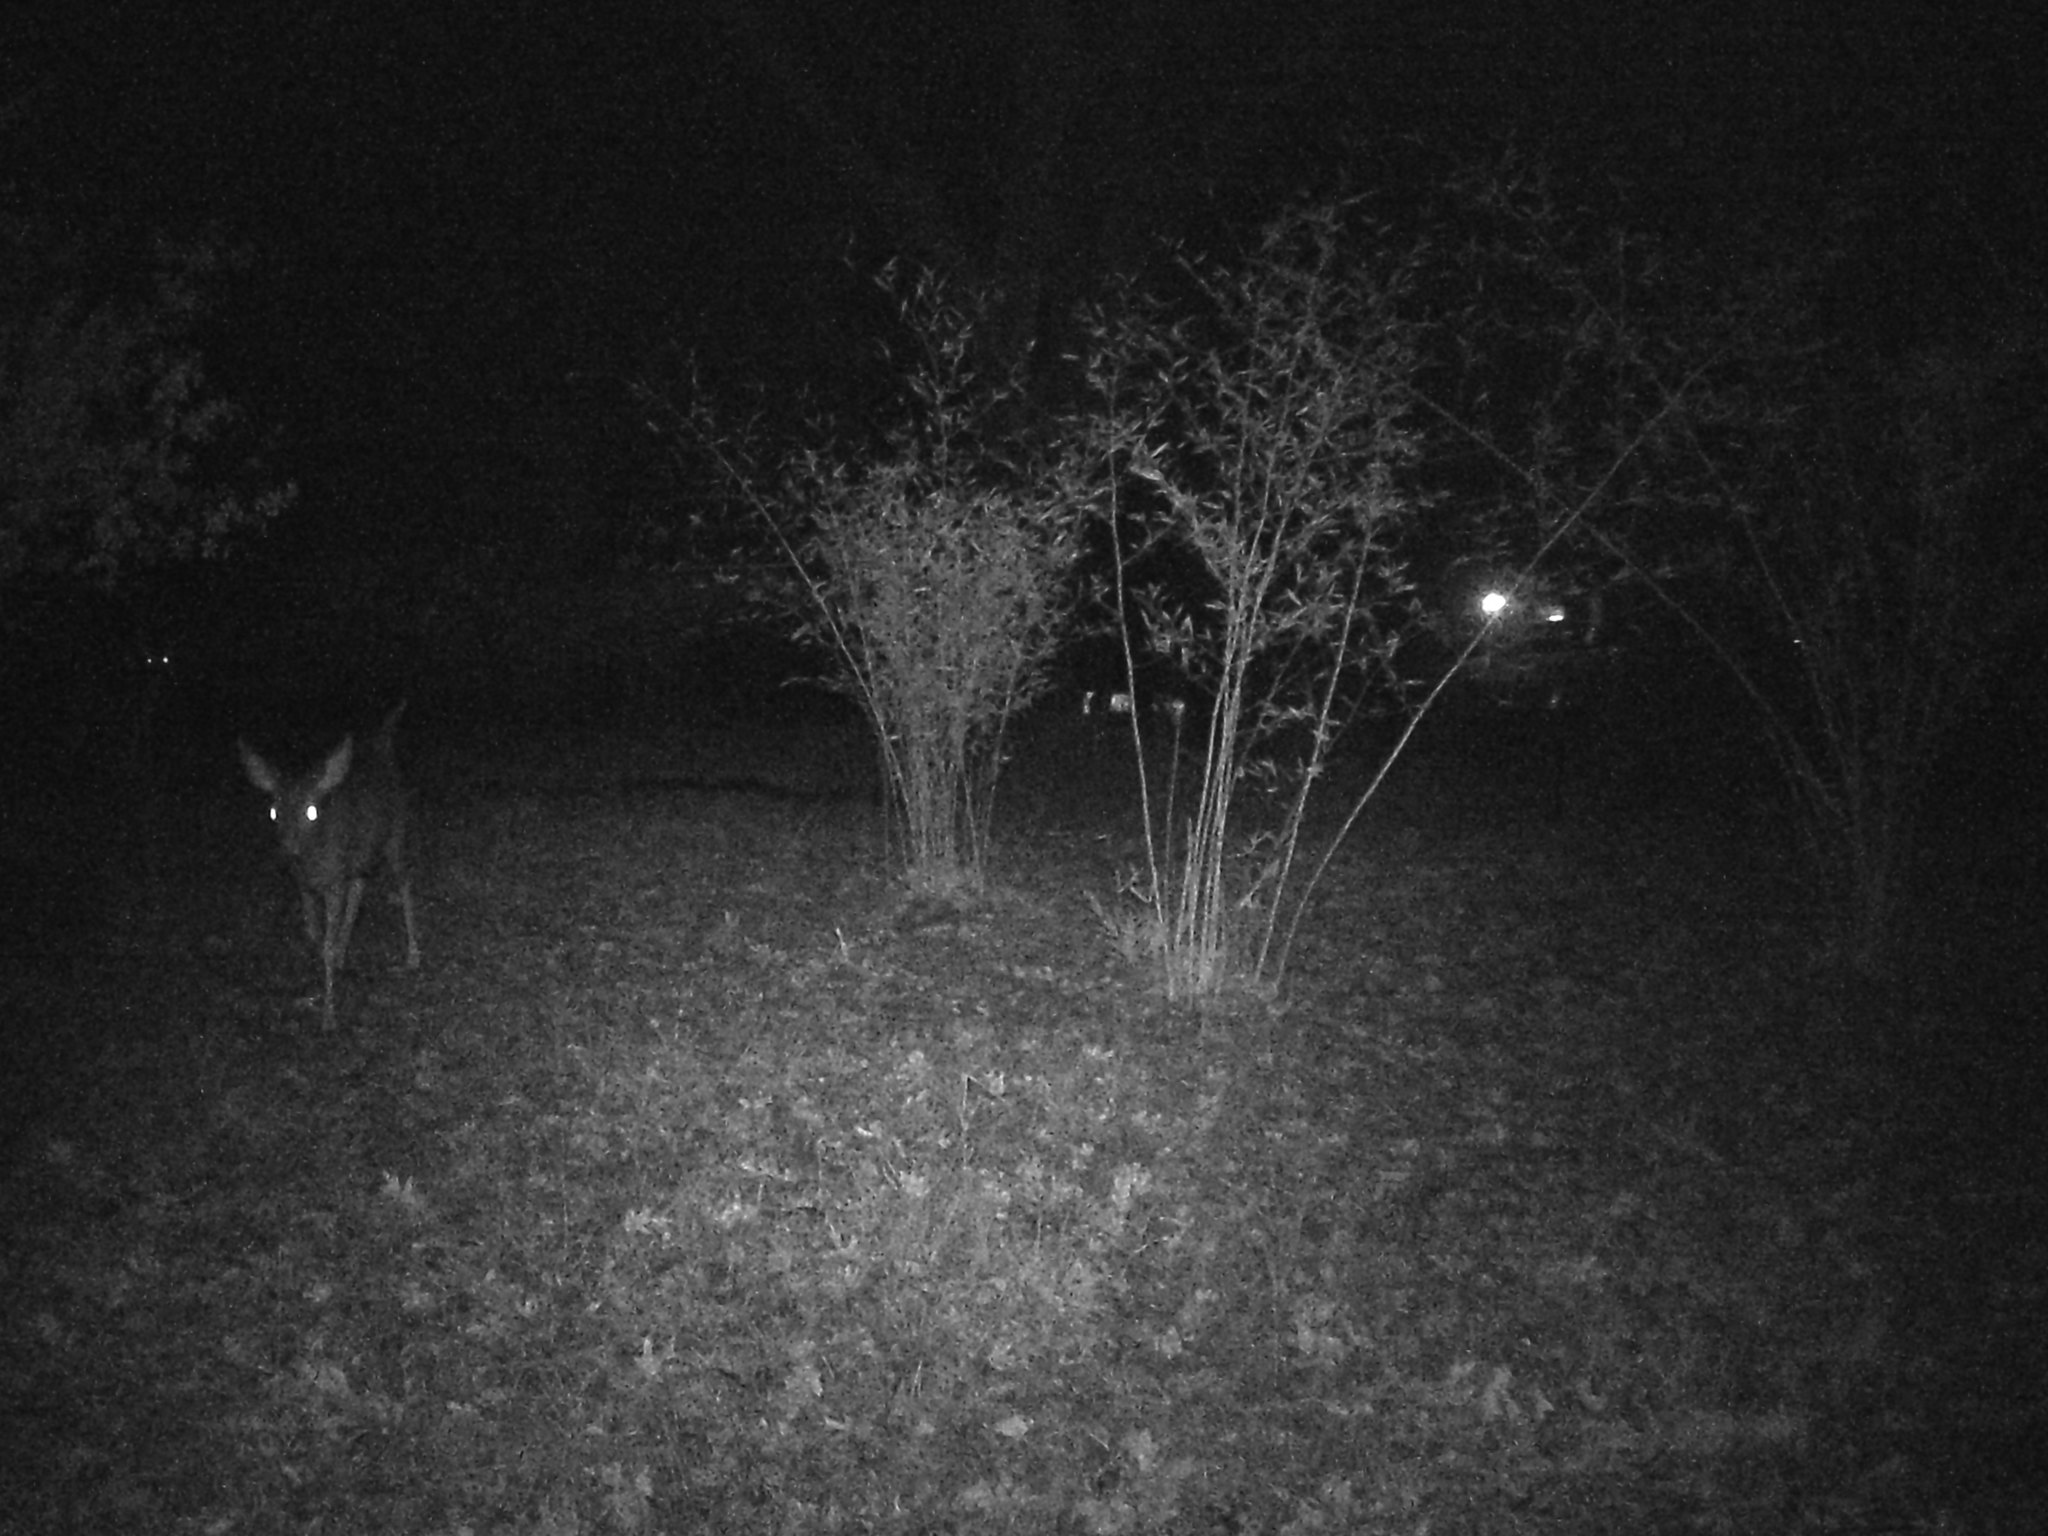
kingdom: Animalia
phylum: Chordata
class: Mammalia
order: Artiodactyla
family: Cervidae
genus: Odocoileus
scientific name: Odocoileus hemionus
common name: Mule deer
